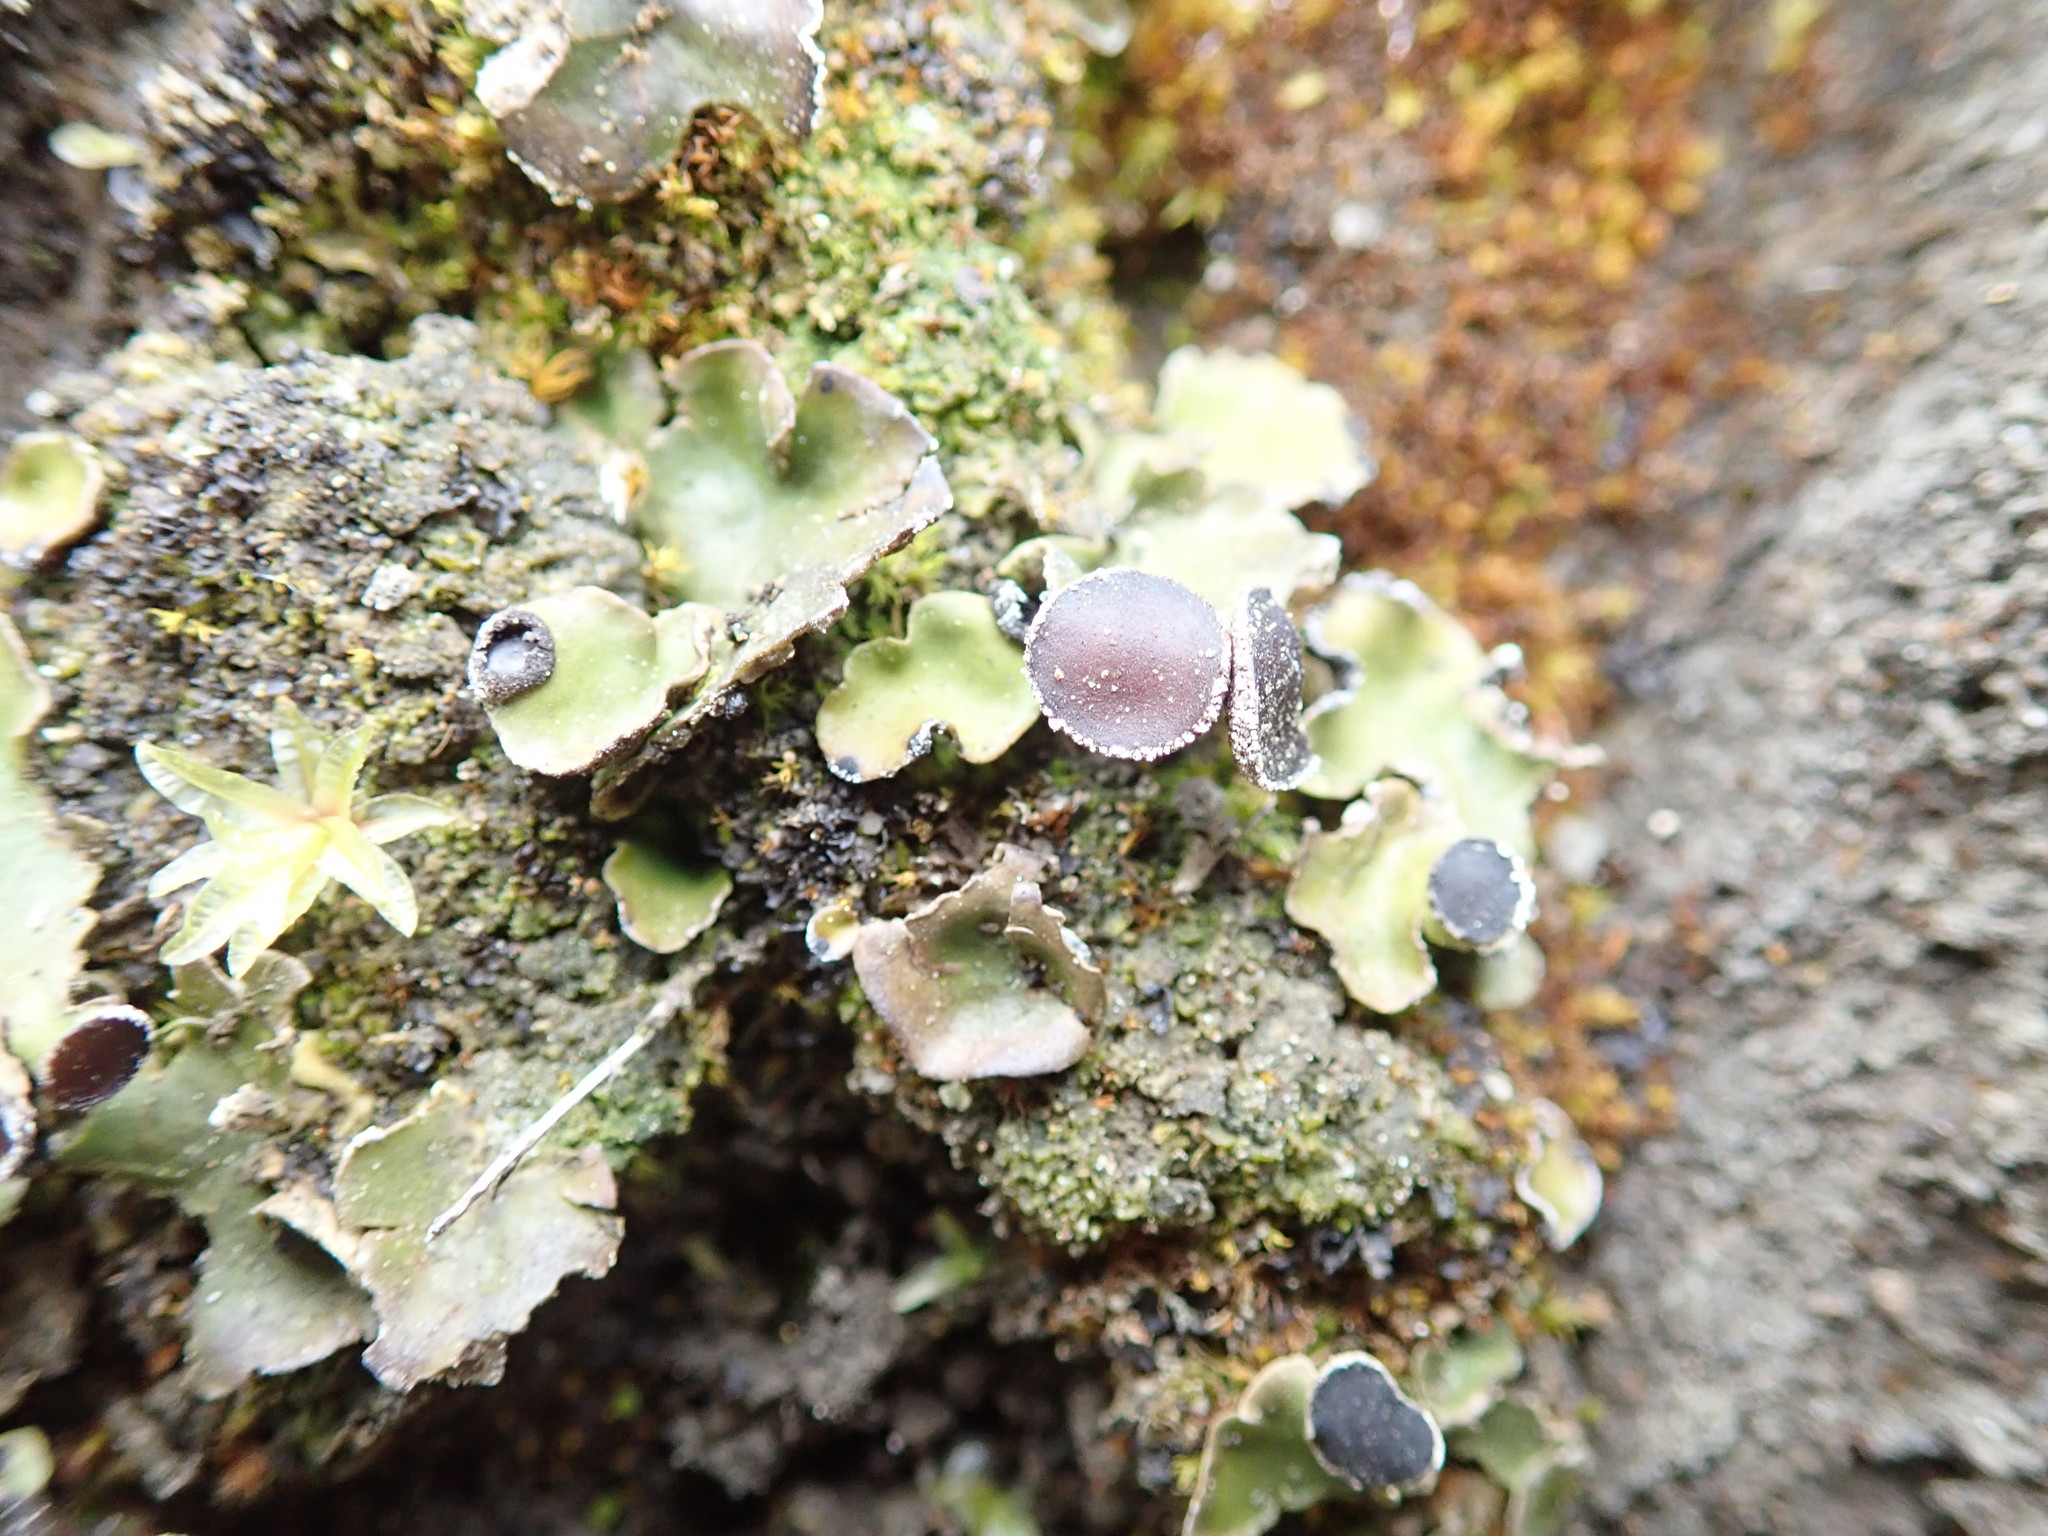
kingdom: Fungi
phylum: Ascomycota
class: Lecanoromycetes
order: Peltigerales
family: Peltigeraceae
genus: Peltigera
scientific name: Peltigera venosa
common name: Pixie gowns lichen
